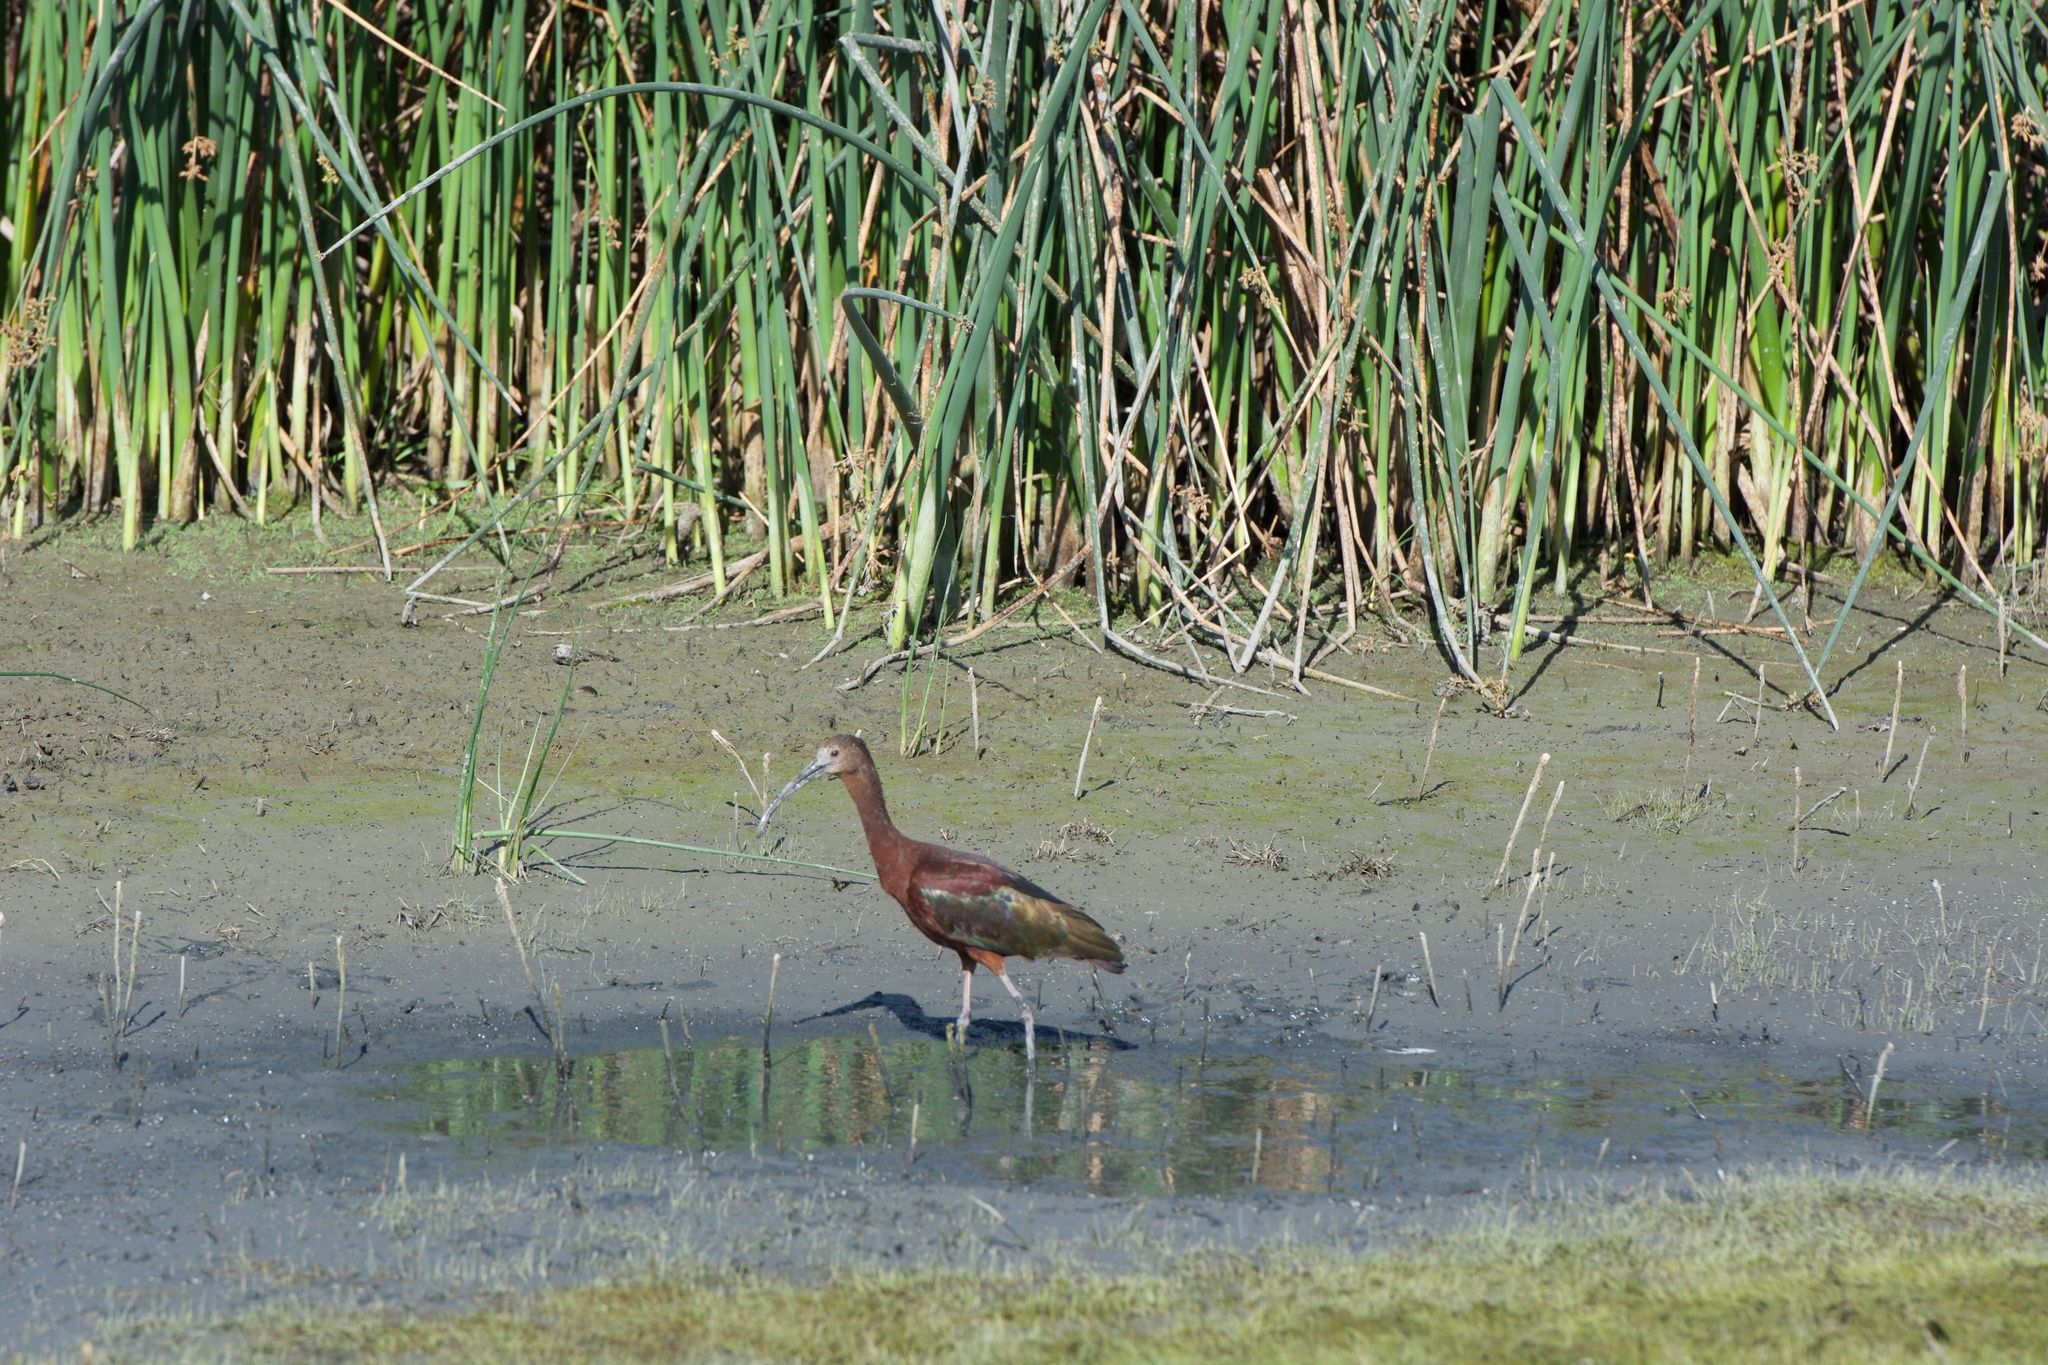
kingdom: Animalia
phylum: Chordata
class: Aves
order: Pelecaniformes
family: Threskiornithidae
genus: Plegadis
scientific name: Plegadis chihi
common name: White-faced ibis
